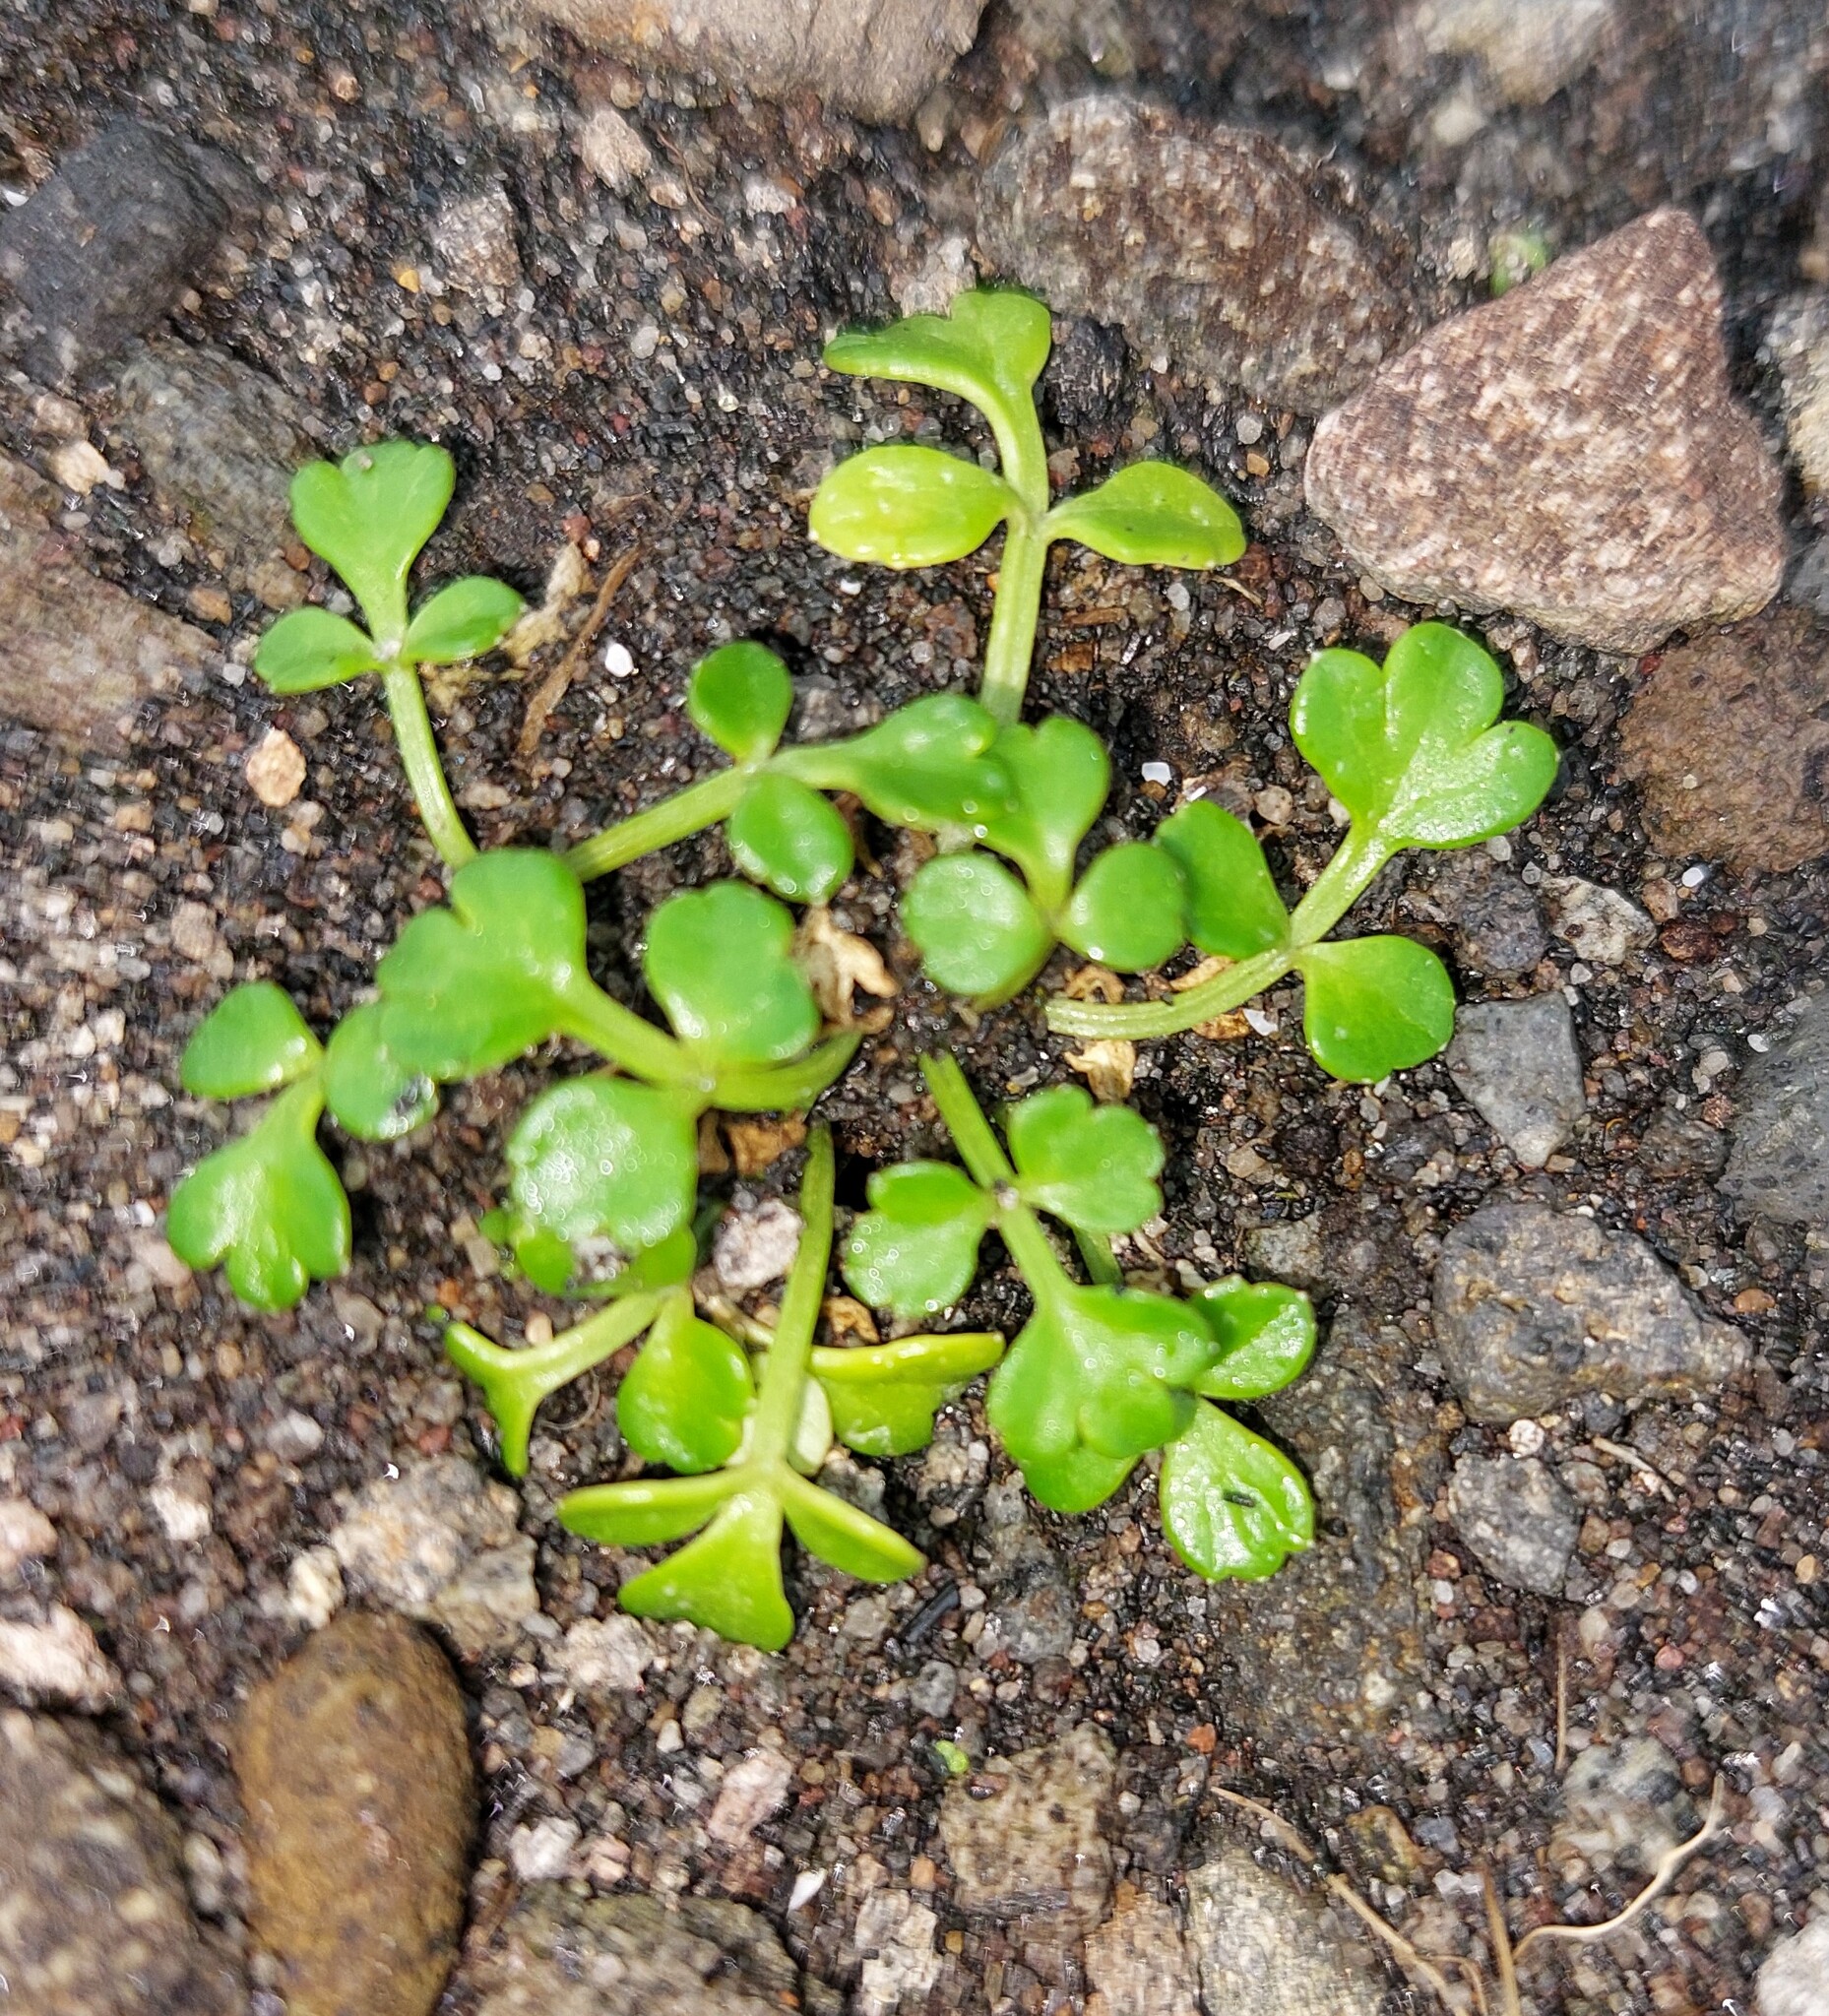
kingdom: Plantae
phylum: Tracheophyta
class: Magnoliopsida
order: Apiales
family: Apiaceae
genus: Apium
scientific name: Apium prostratum
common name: Prostrate marshwort
